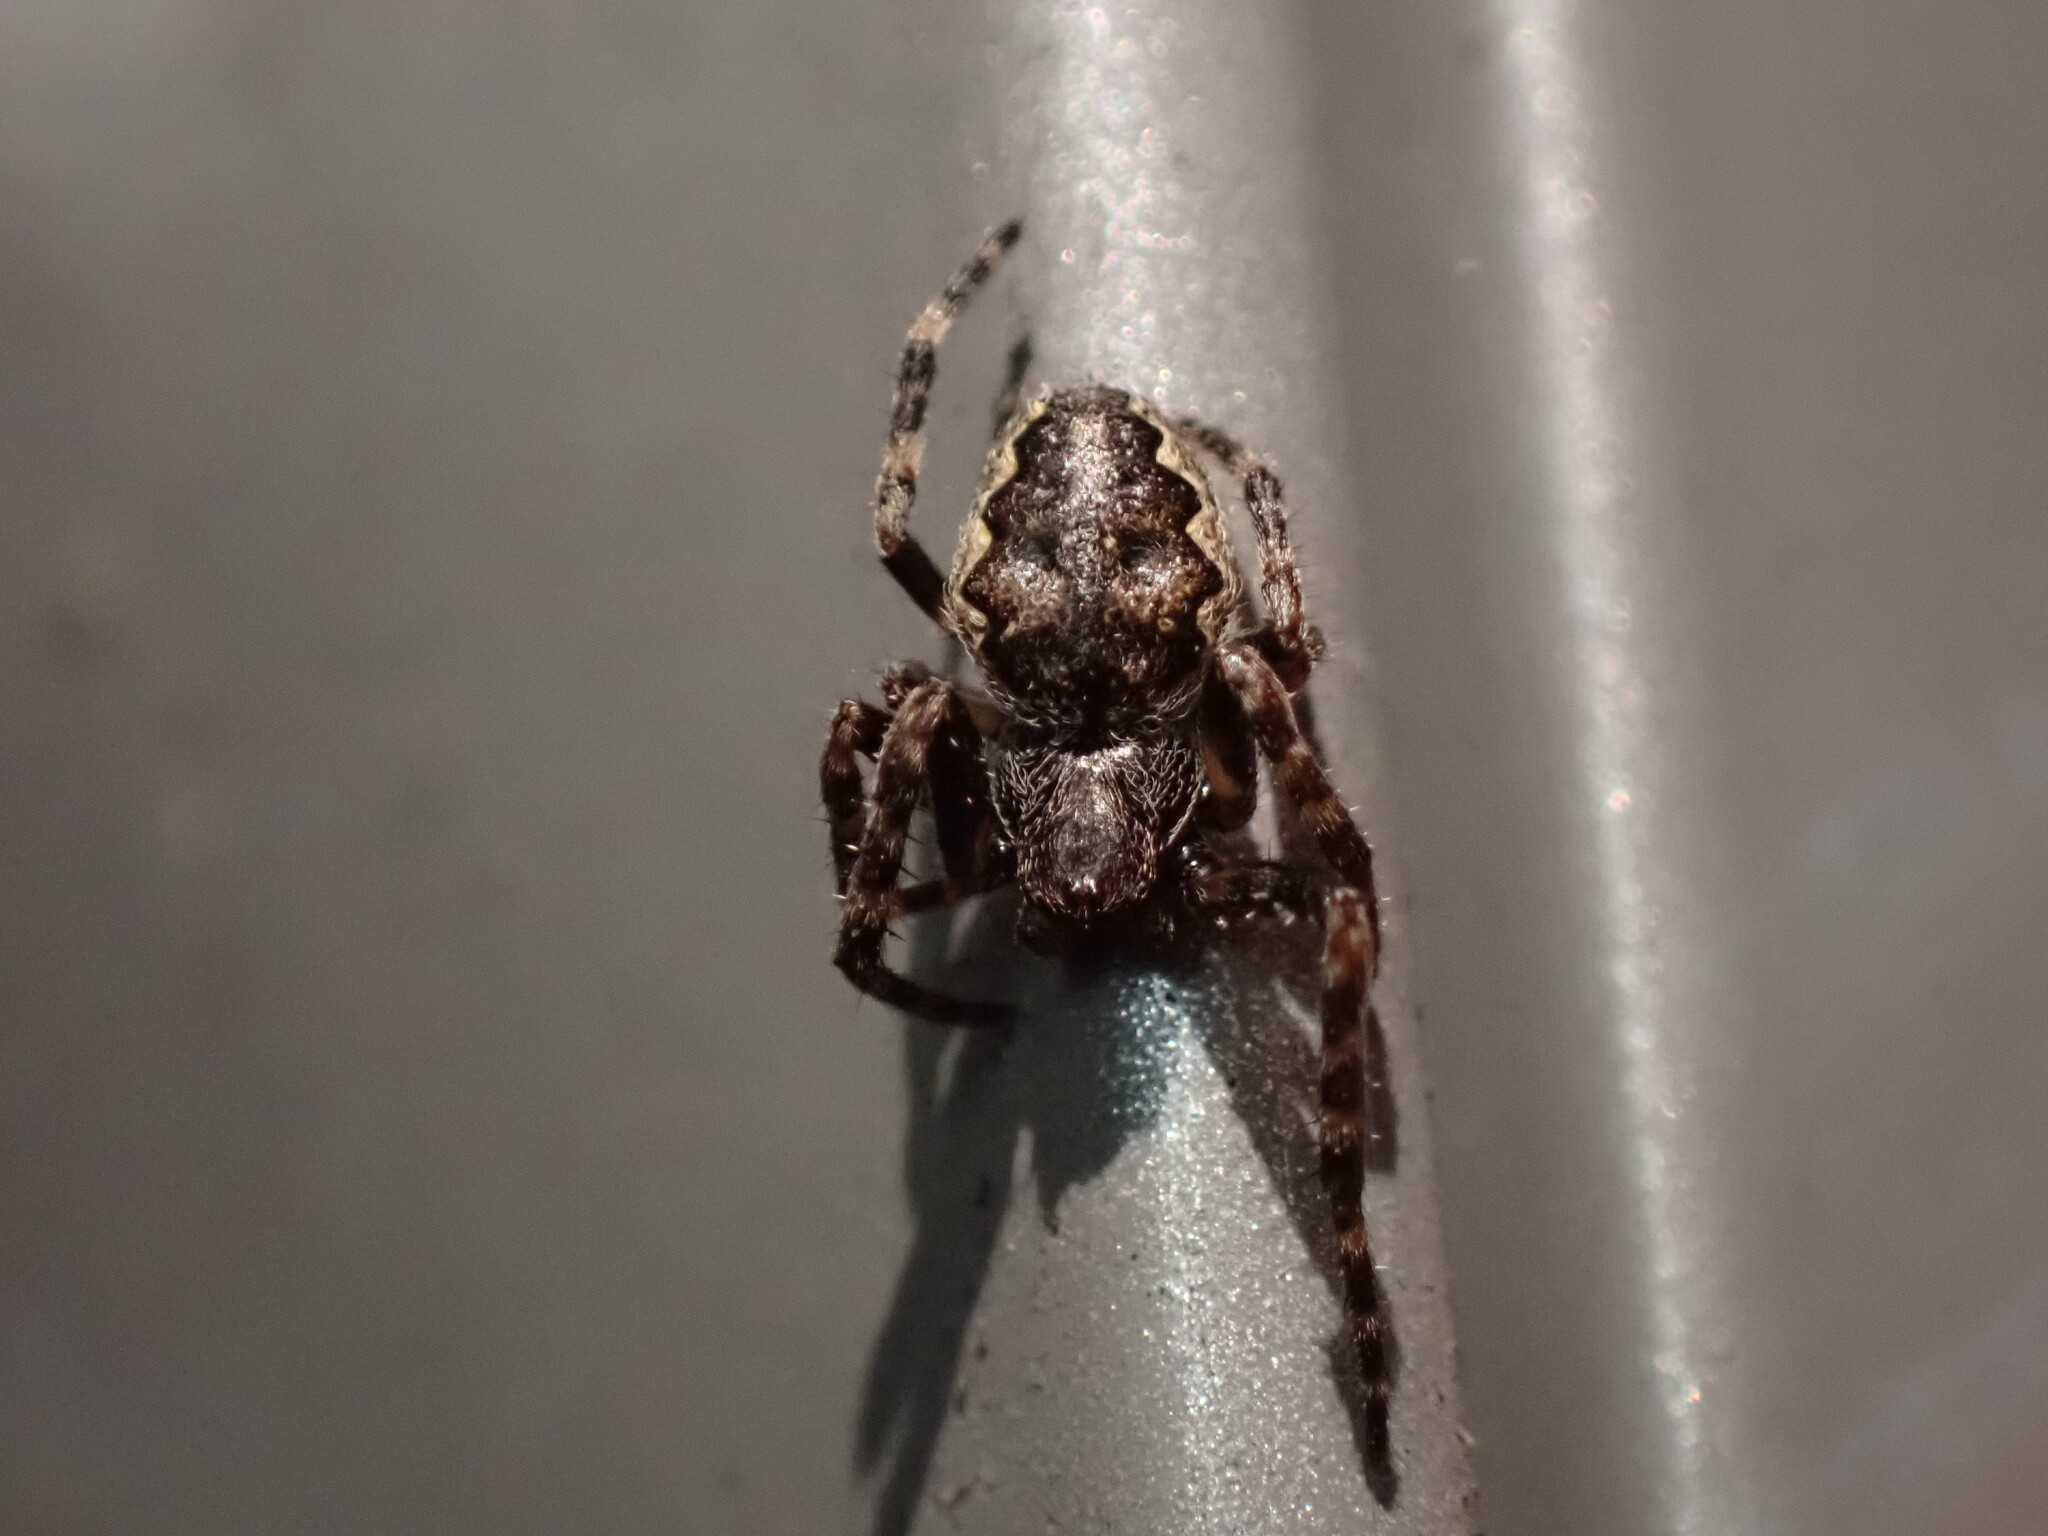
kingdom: Animalia
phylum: Arthropoda
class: Arachnida
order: Araneae
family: Araneidae
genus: Nuctenea
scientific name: Nuctenea umbratica
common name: Toad spider
